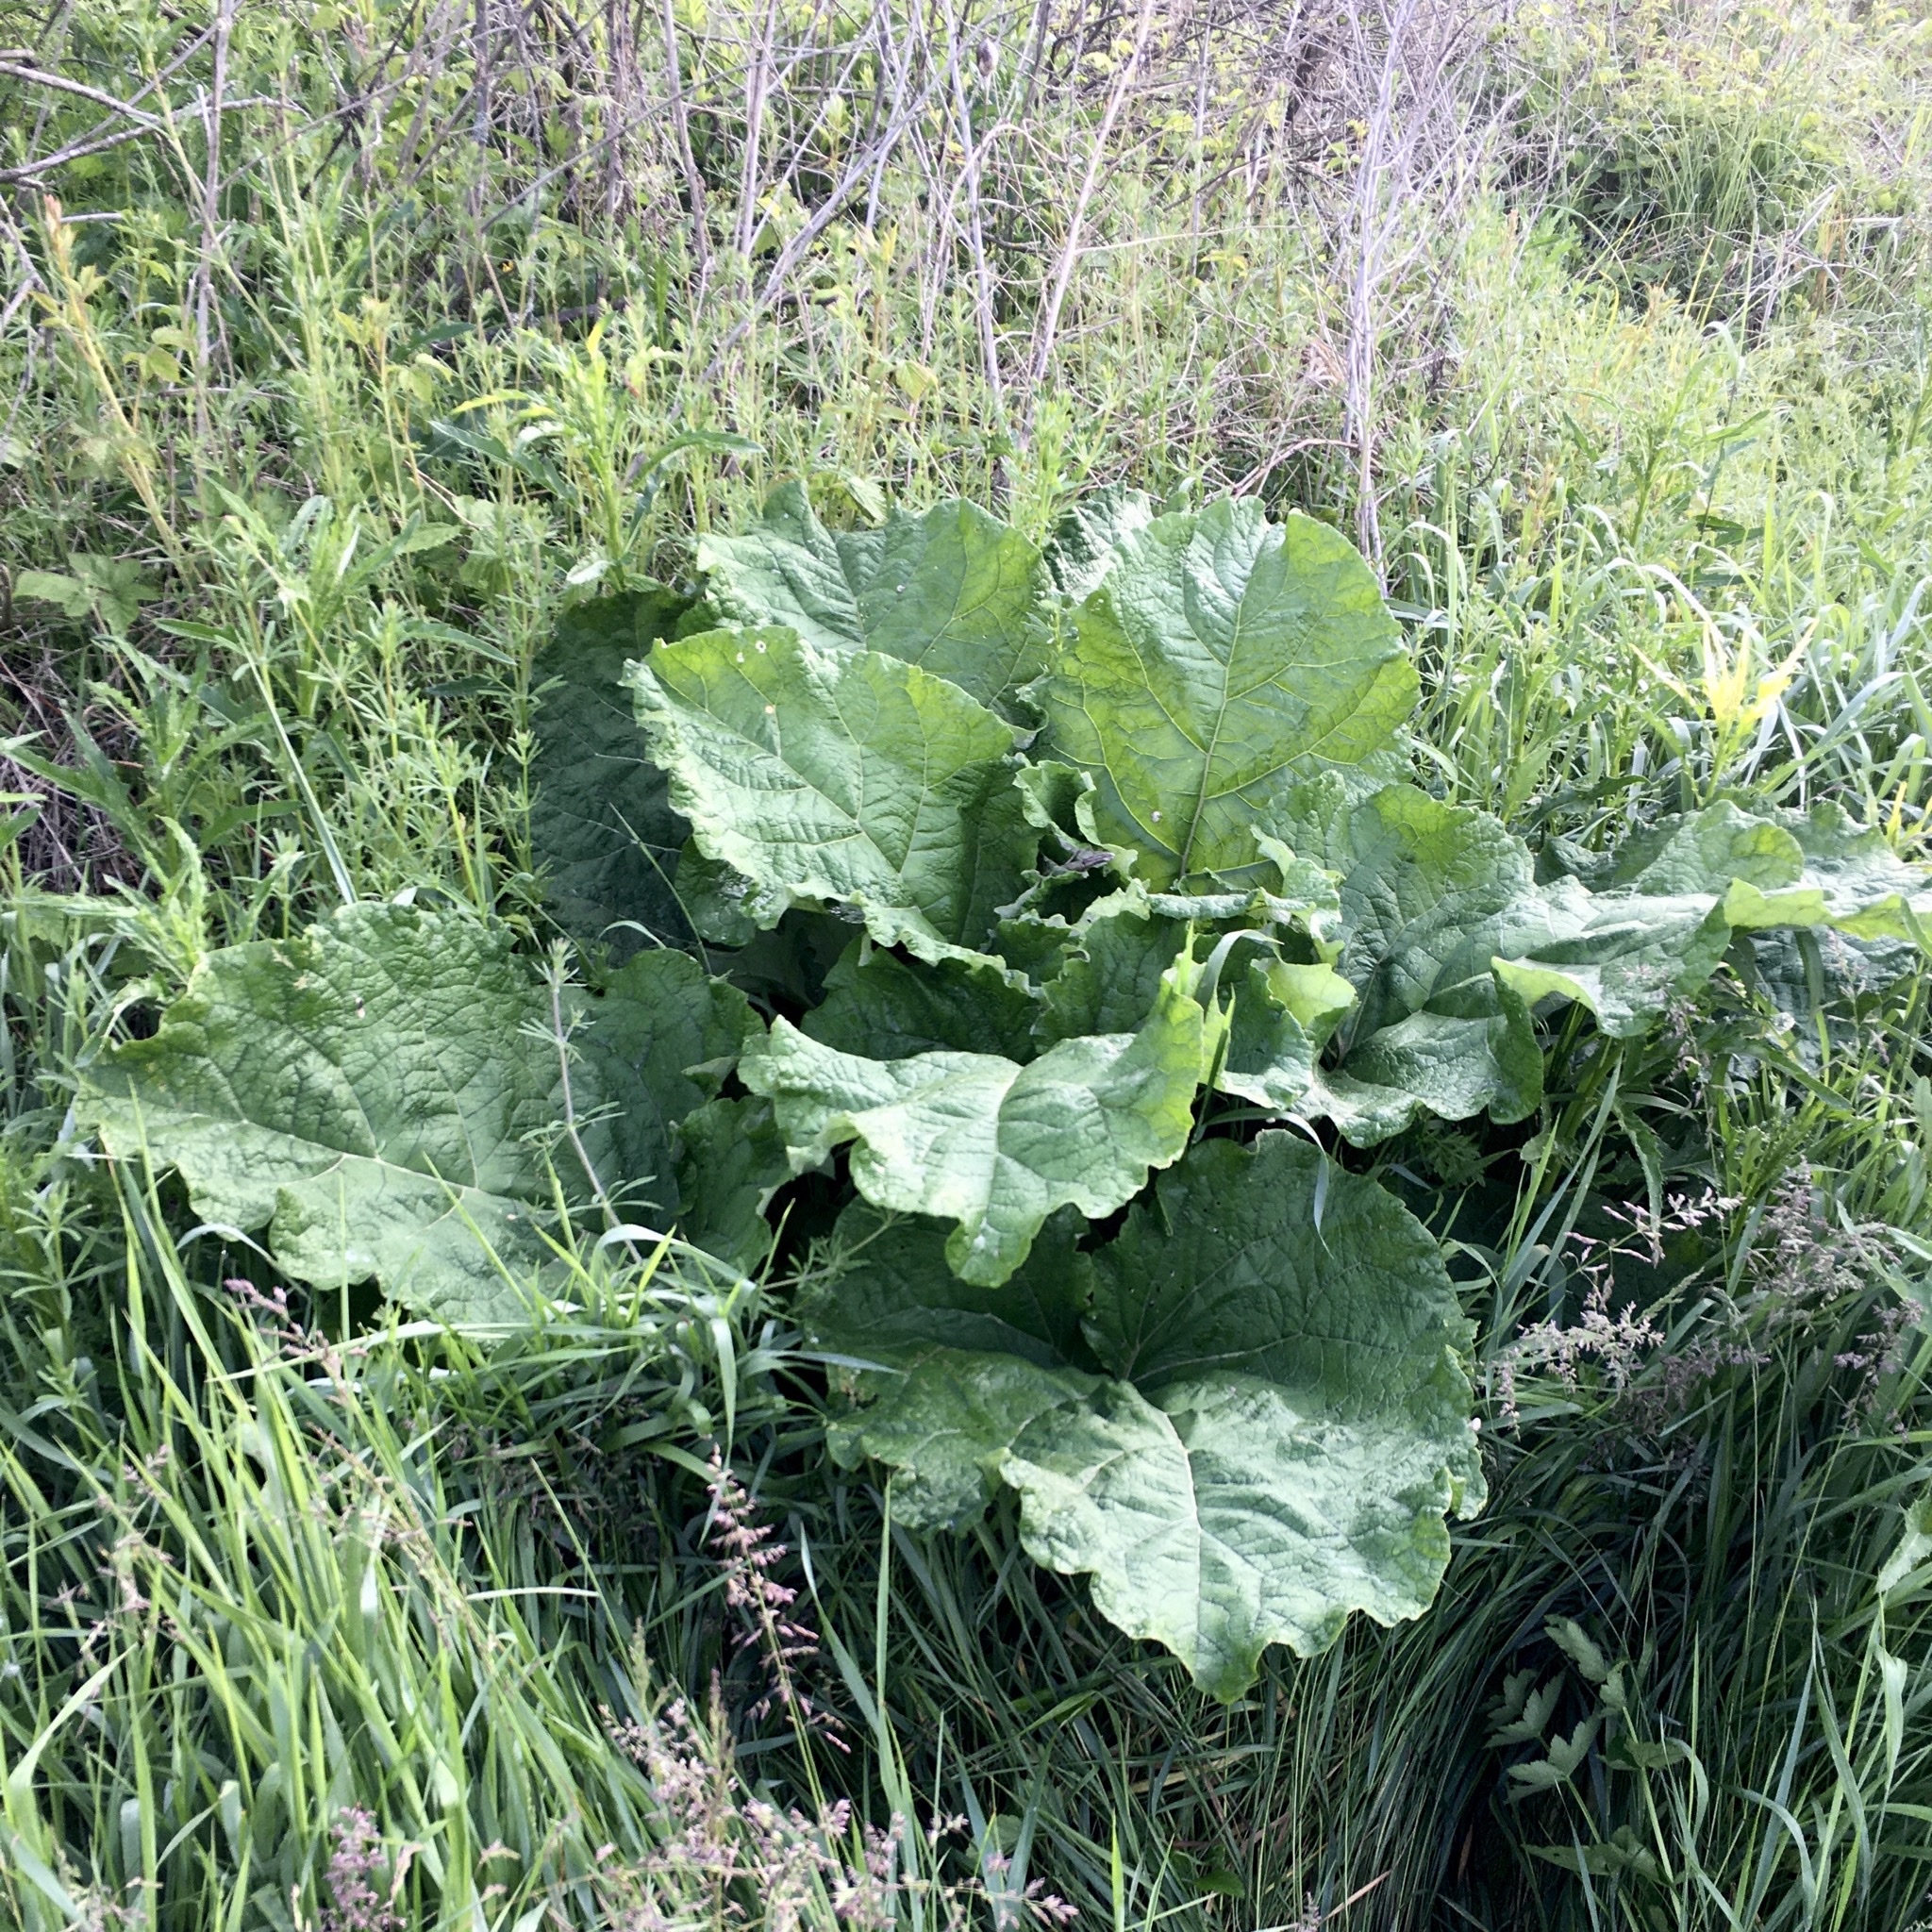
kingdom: Plantae
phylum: Tracheophyta
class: Magnoliopsida
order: Asterales
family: Asteraceae
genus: Arctium
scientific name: Arctium lappa
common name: Greater burdock
